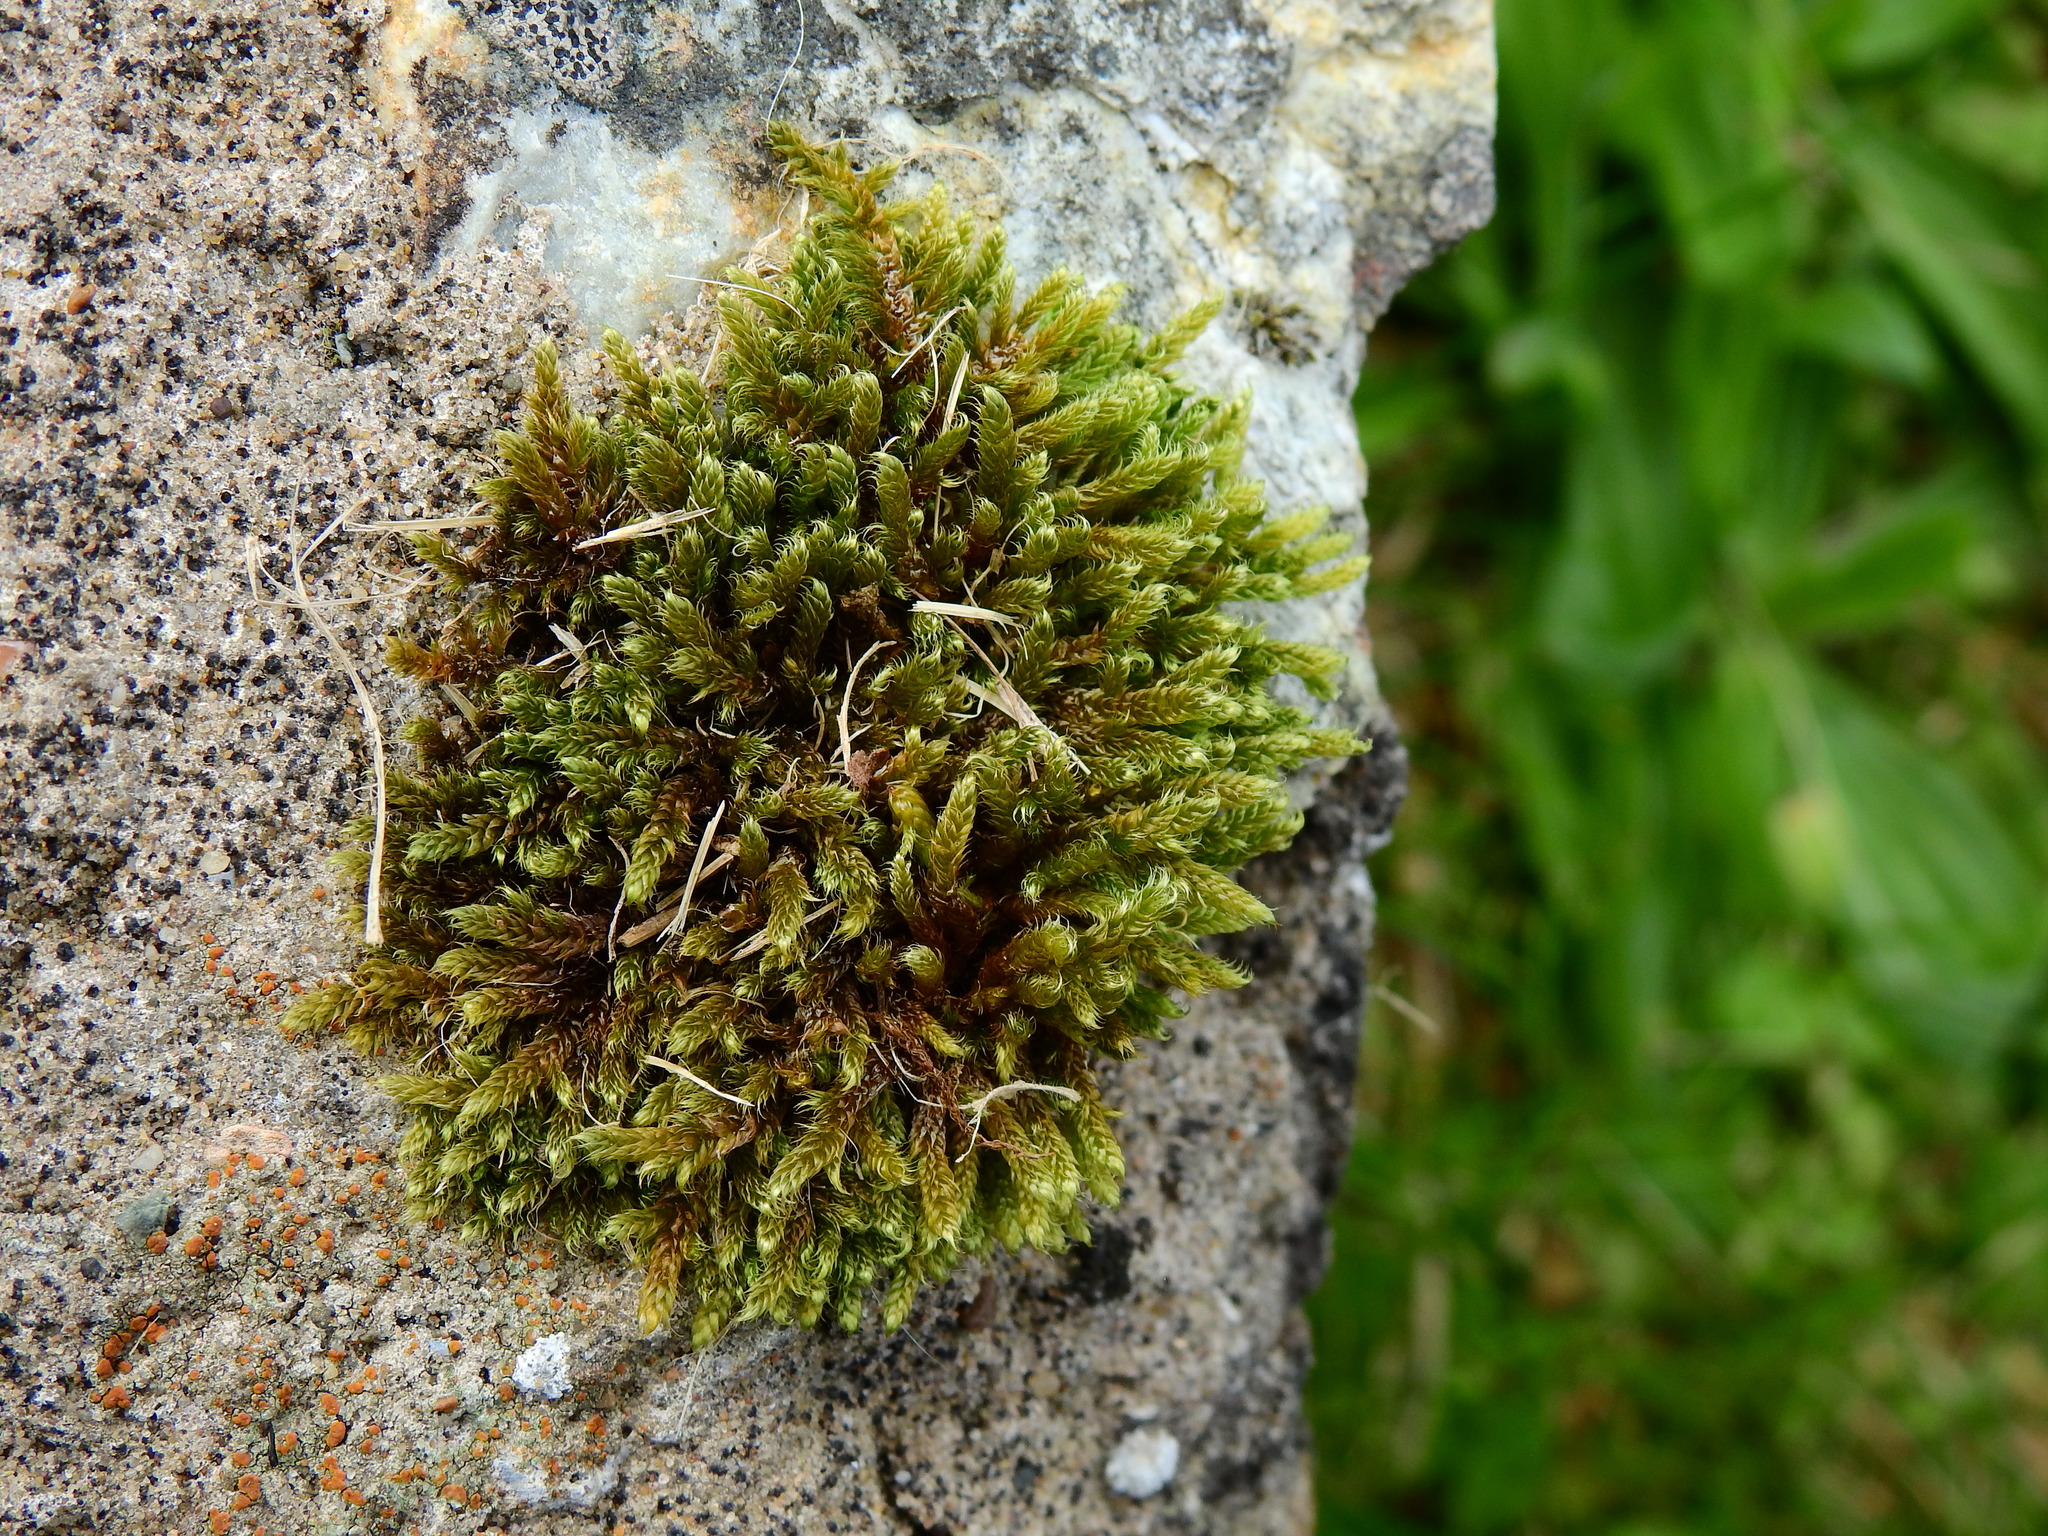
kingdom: Plantae
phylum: Bryophyta
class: Bryopsida
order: Hypnales
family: Hypnaceae
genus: Hypnum
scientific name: Hypnum cupressiforme
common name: Cypress-leaved plait-moss
